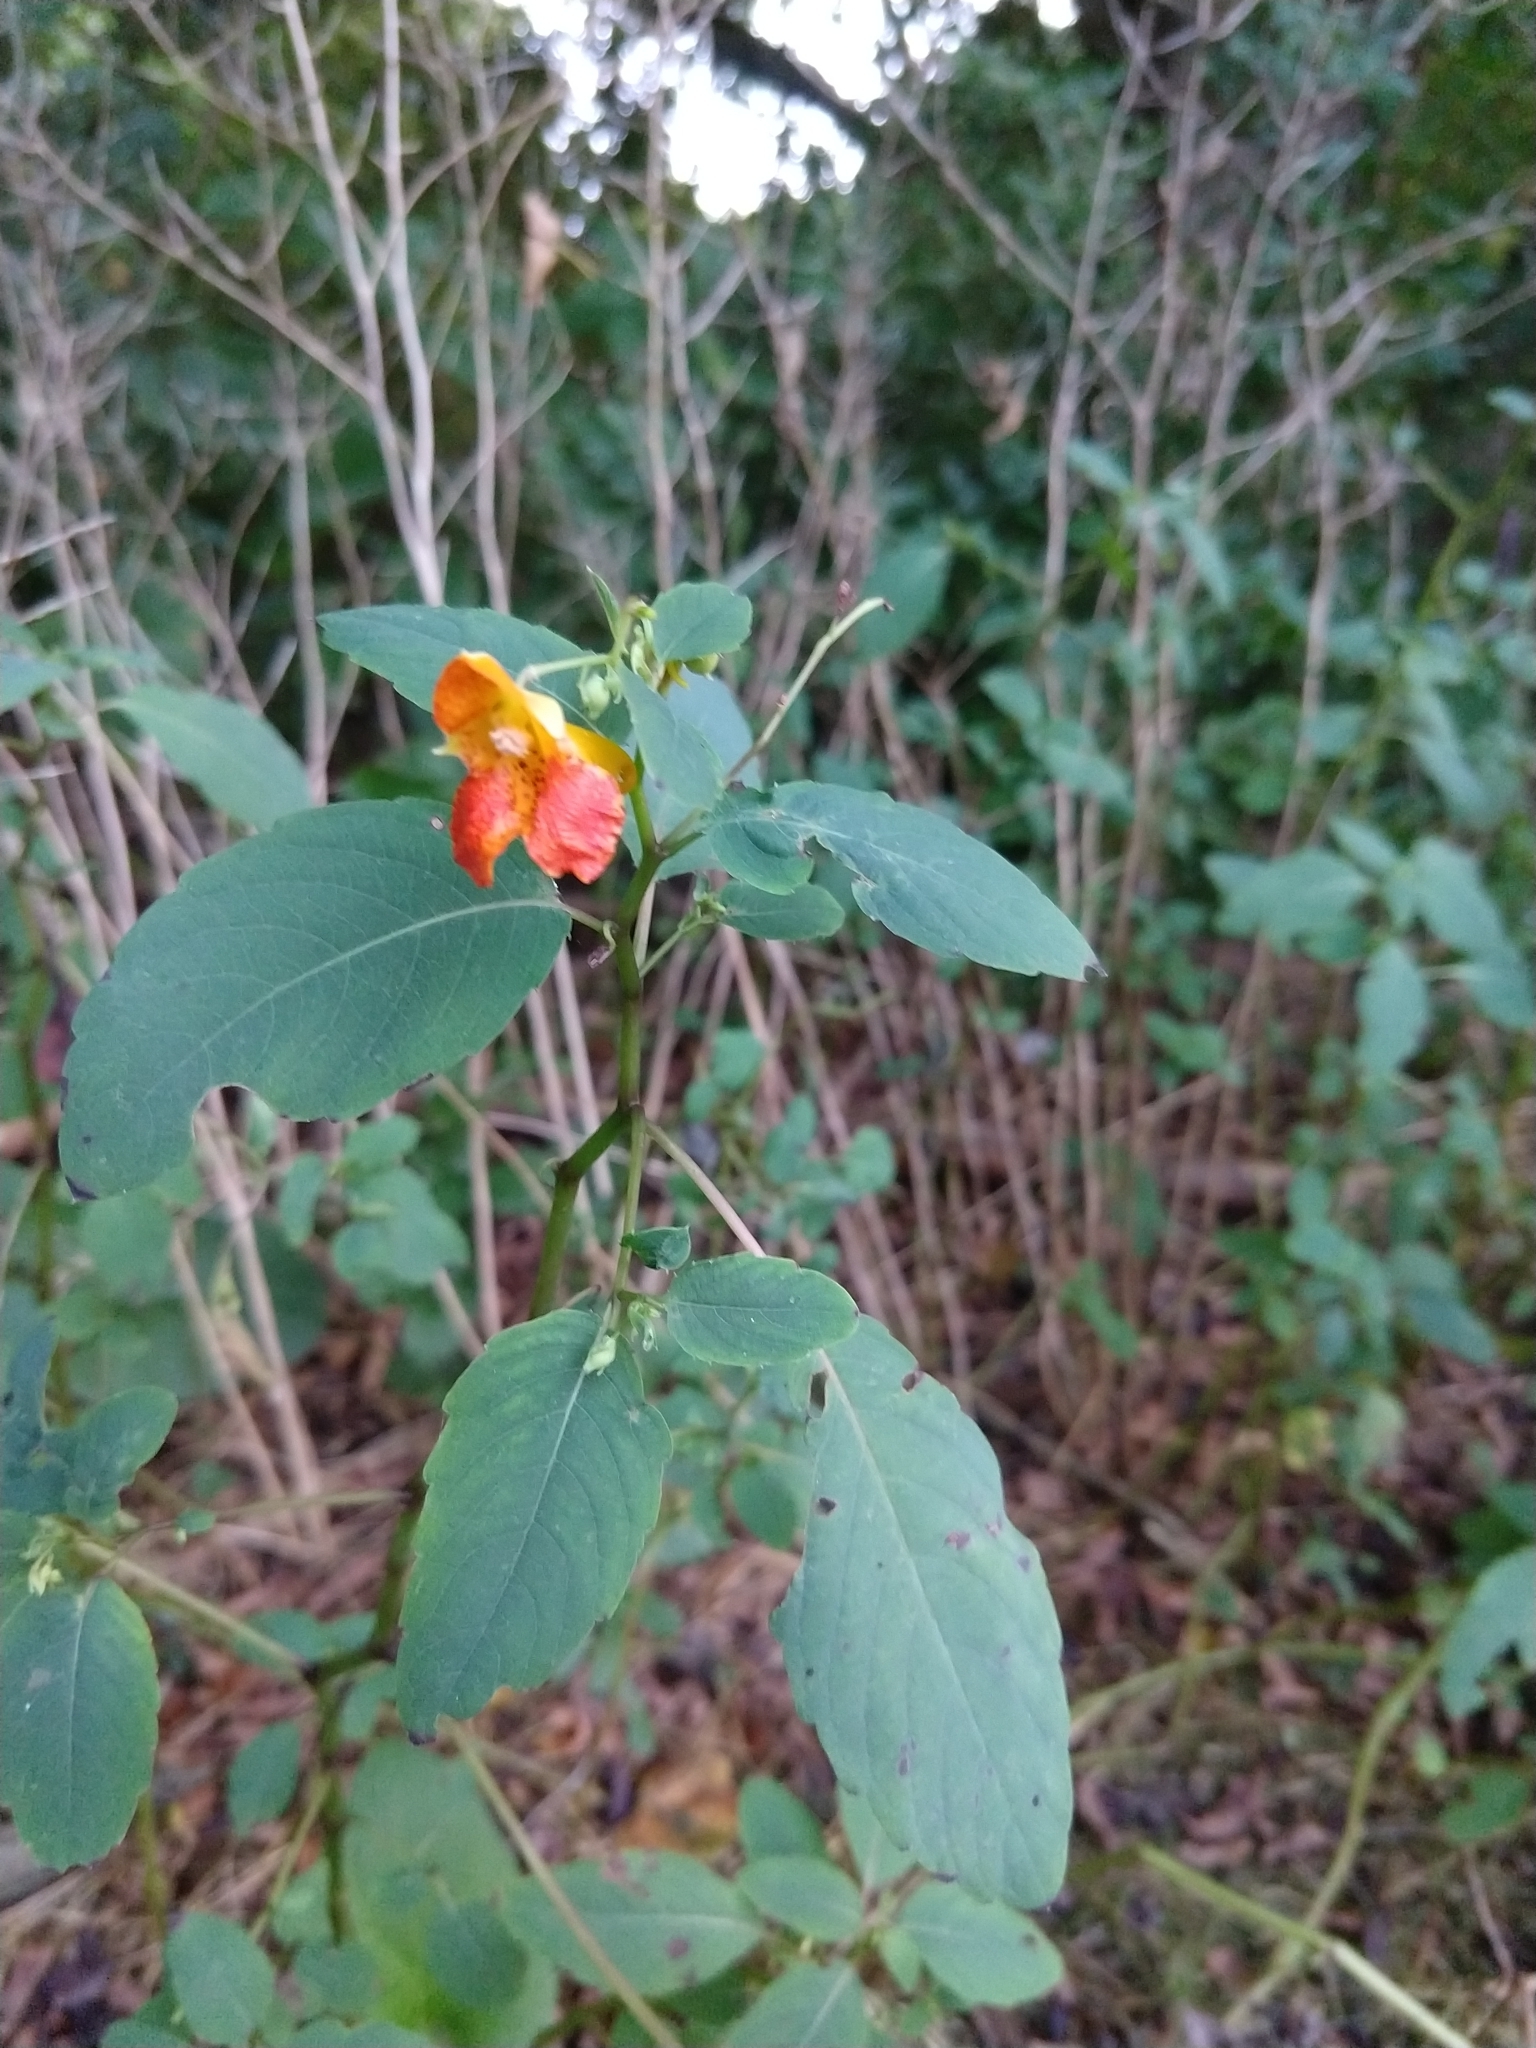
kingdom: Plantae
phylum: Tracheophyta
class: Magnoliopsida
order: Ericales
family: Balsaminaceae
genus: Impatiens
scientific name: Impatiens capensis
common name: Orange balsam
